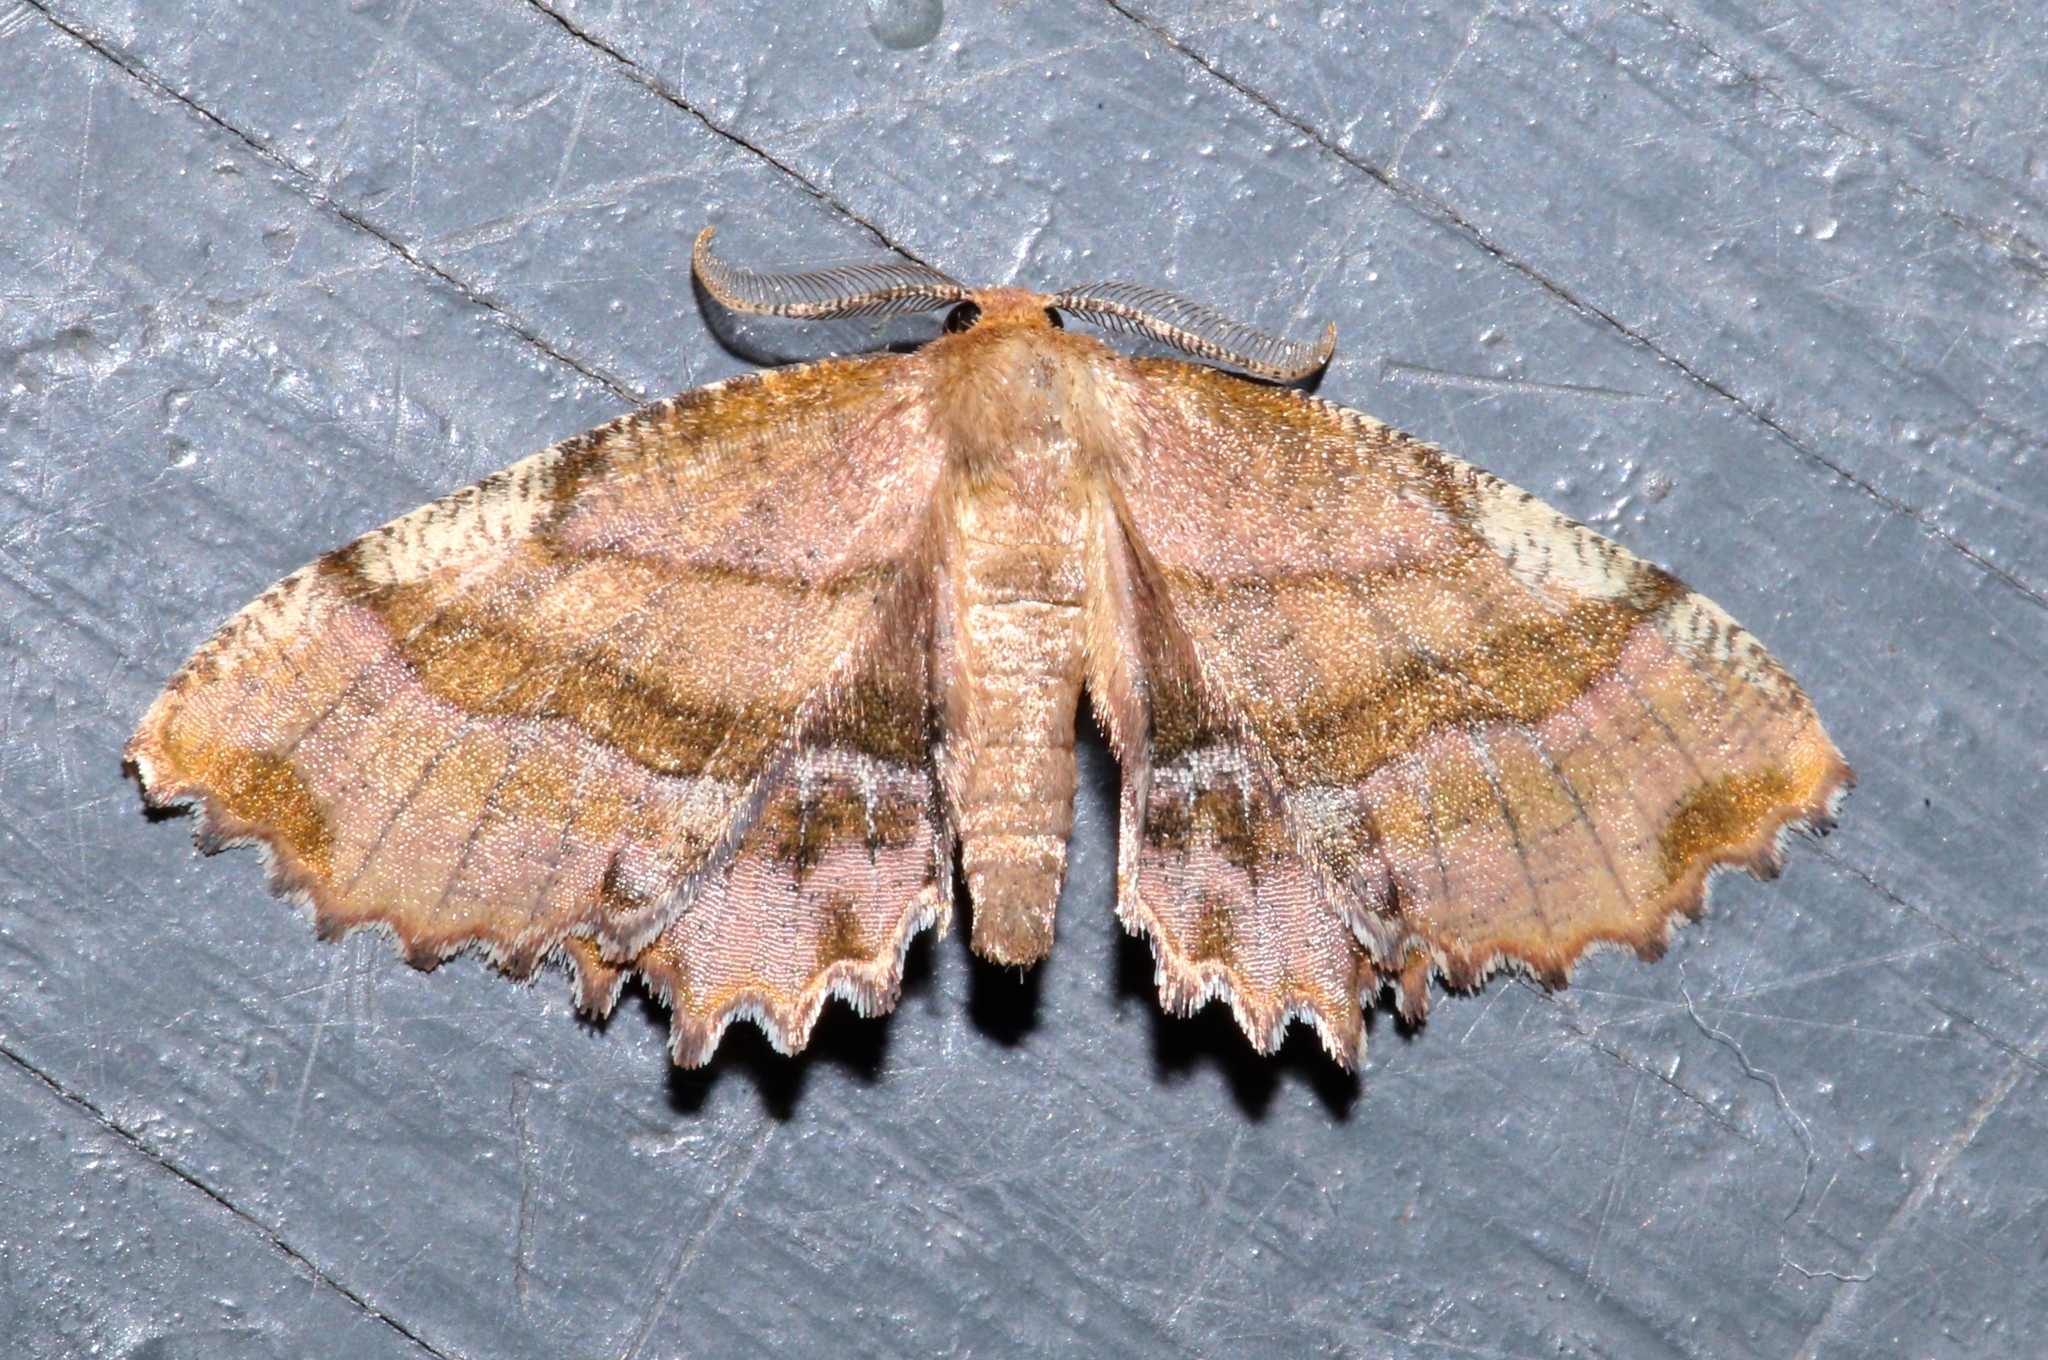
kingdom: Animalia
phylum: Arthropoda
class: Insecta
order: Lepidoptera
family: Geometridae
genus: Cepphis
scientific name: Cepphis armataria
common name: Scallop moth
